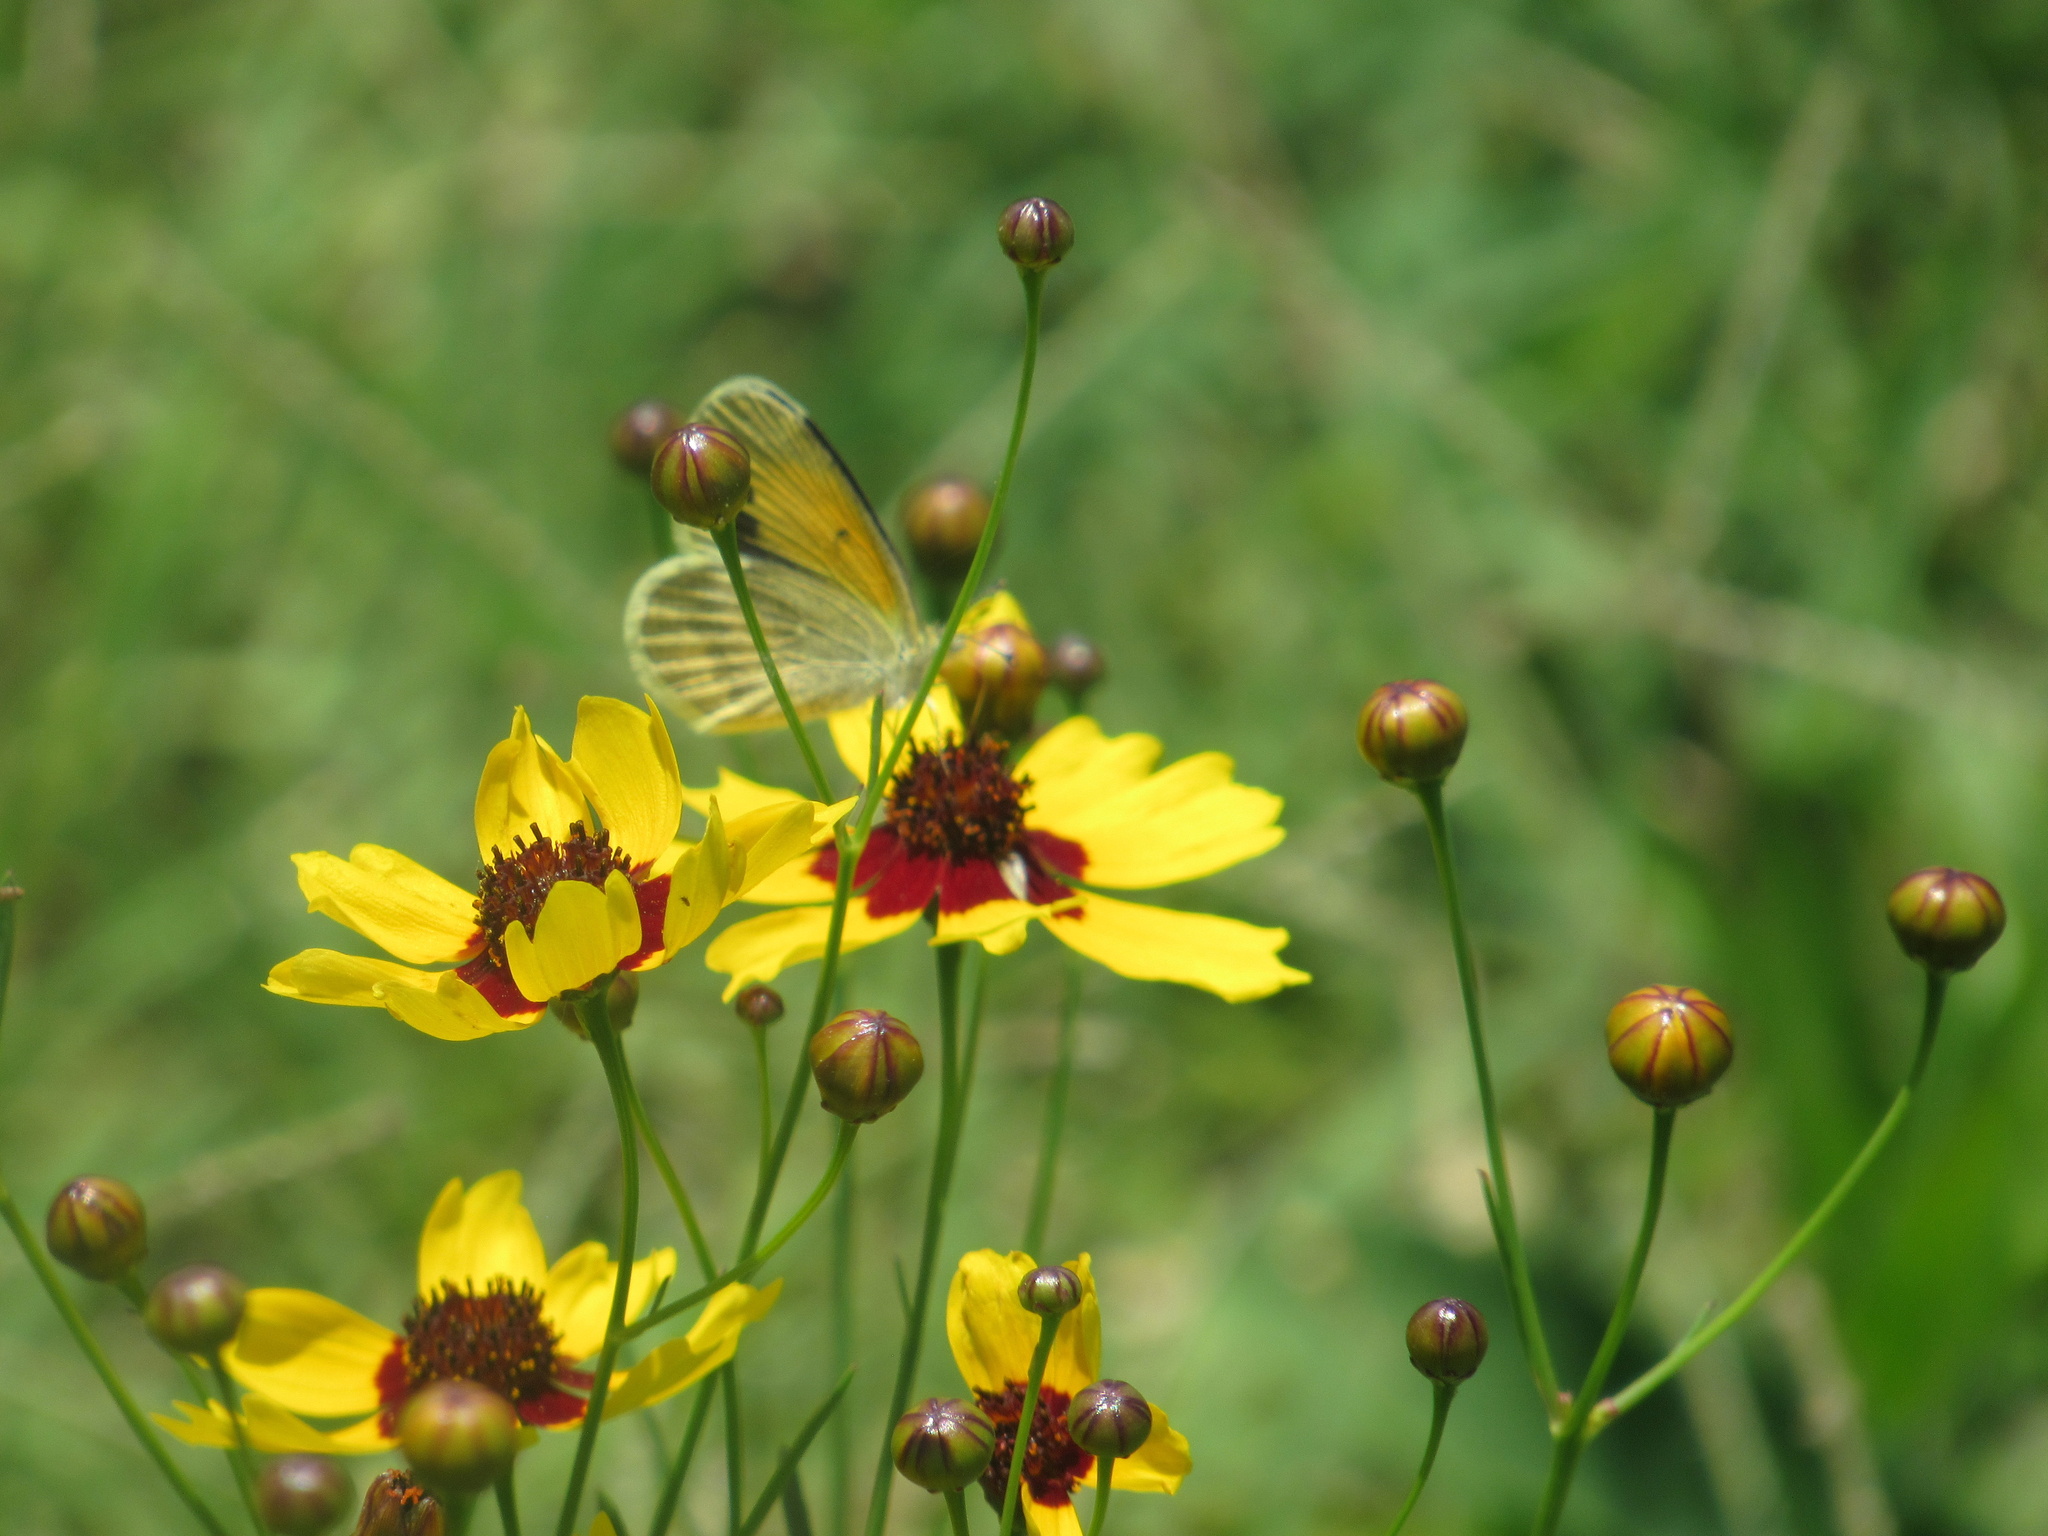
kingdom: Animalia
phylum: Arthropoda
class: Insecta
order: Lepidoptera
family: Pieridae
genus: Nathalis
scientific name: Nathalis iole
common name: Dainty sulphur
